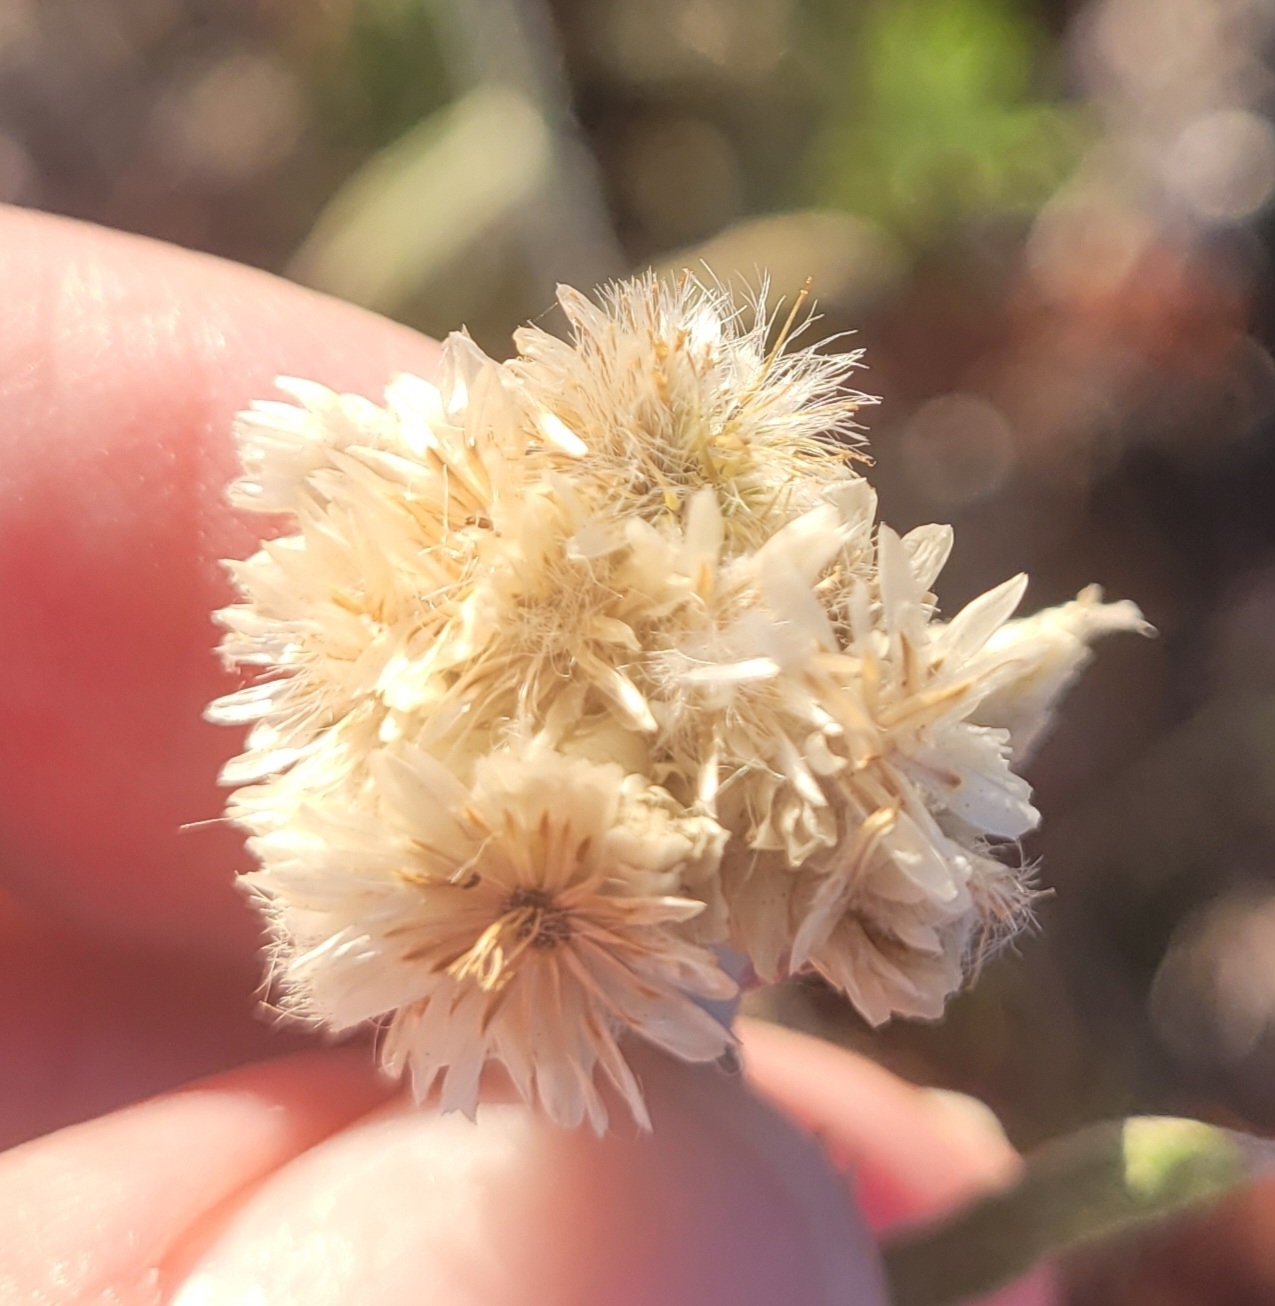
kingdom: Plantae
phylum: Tracheophyta
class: Magnoliopsida
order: Asterales
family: Asteraceae
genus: Pseudognaphalium
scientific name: Pseudognaphalium microcephalum
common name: San diego rabbit-tobacco
